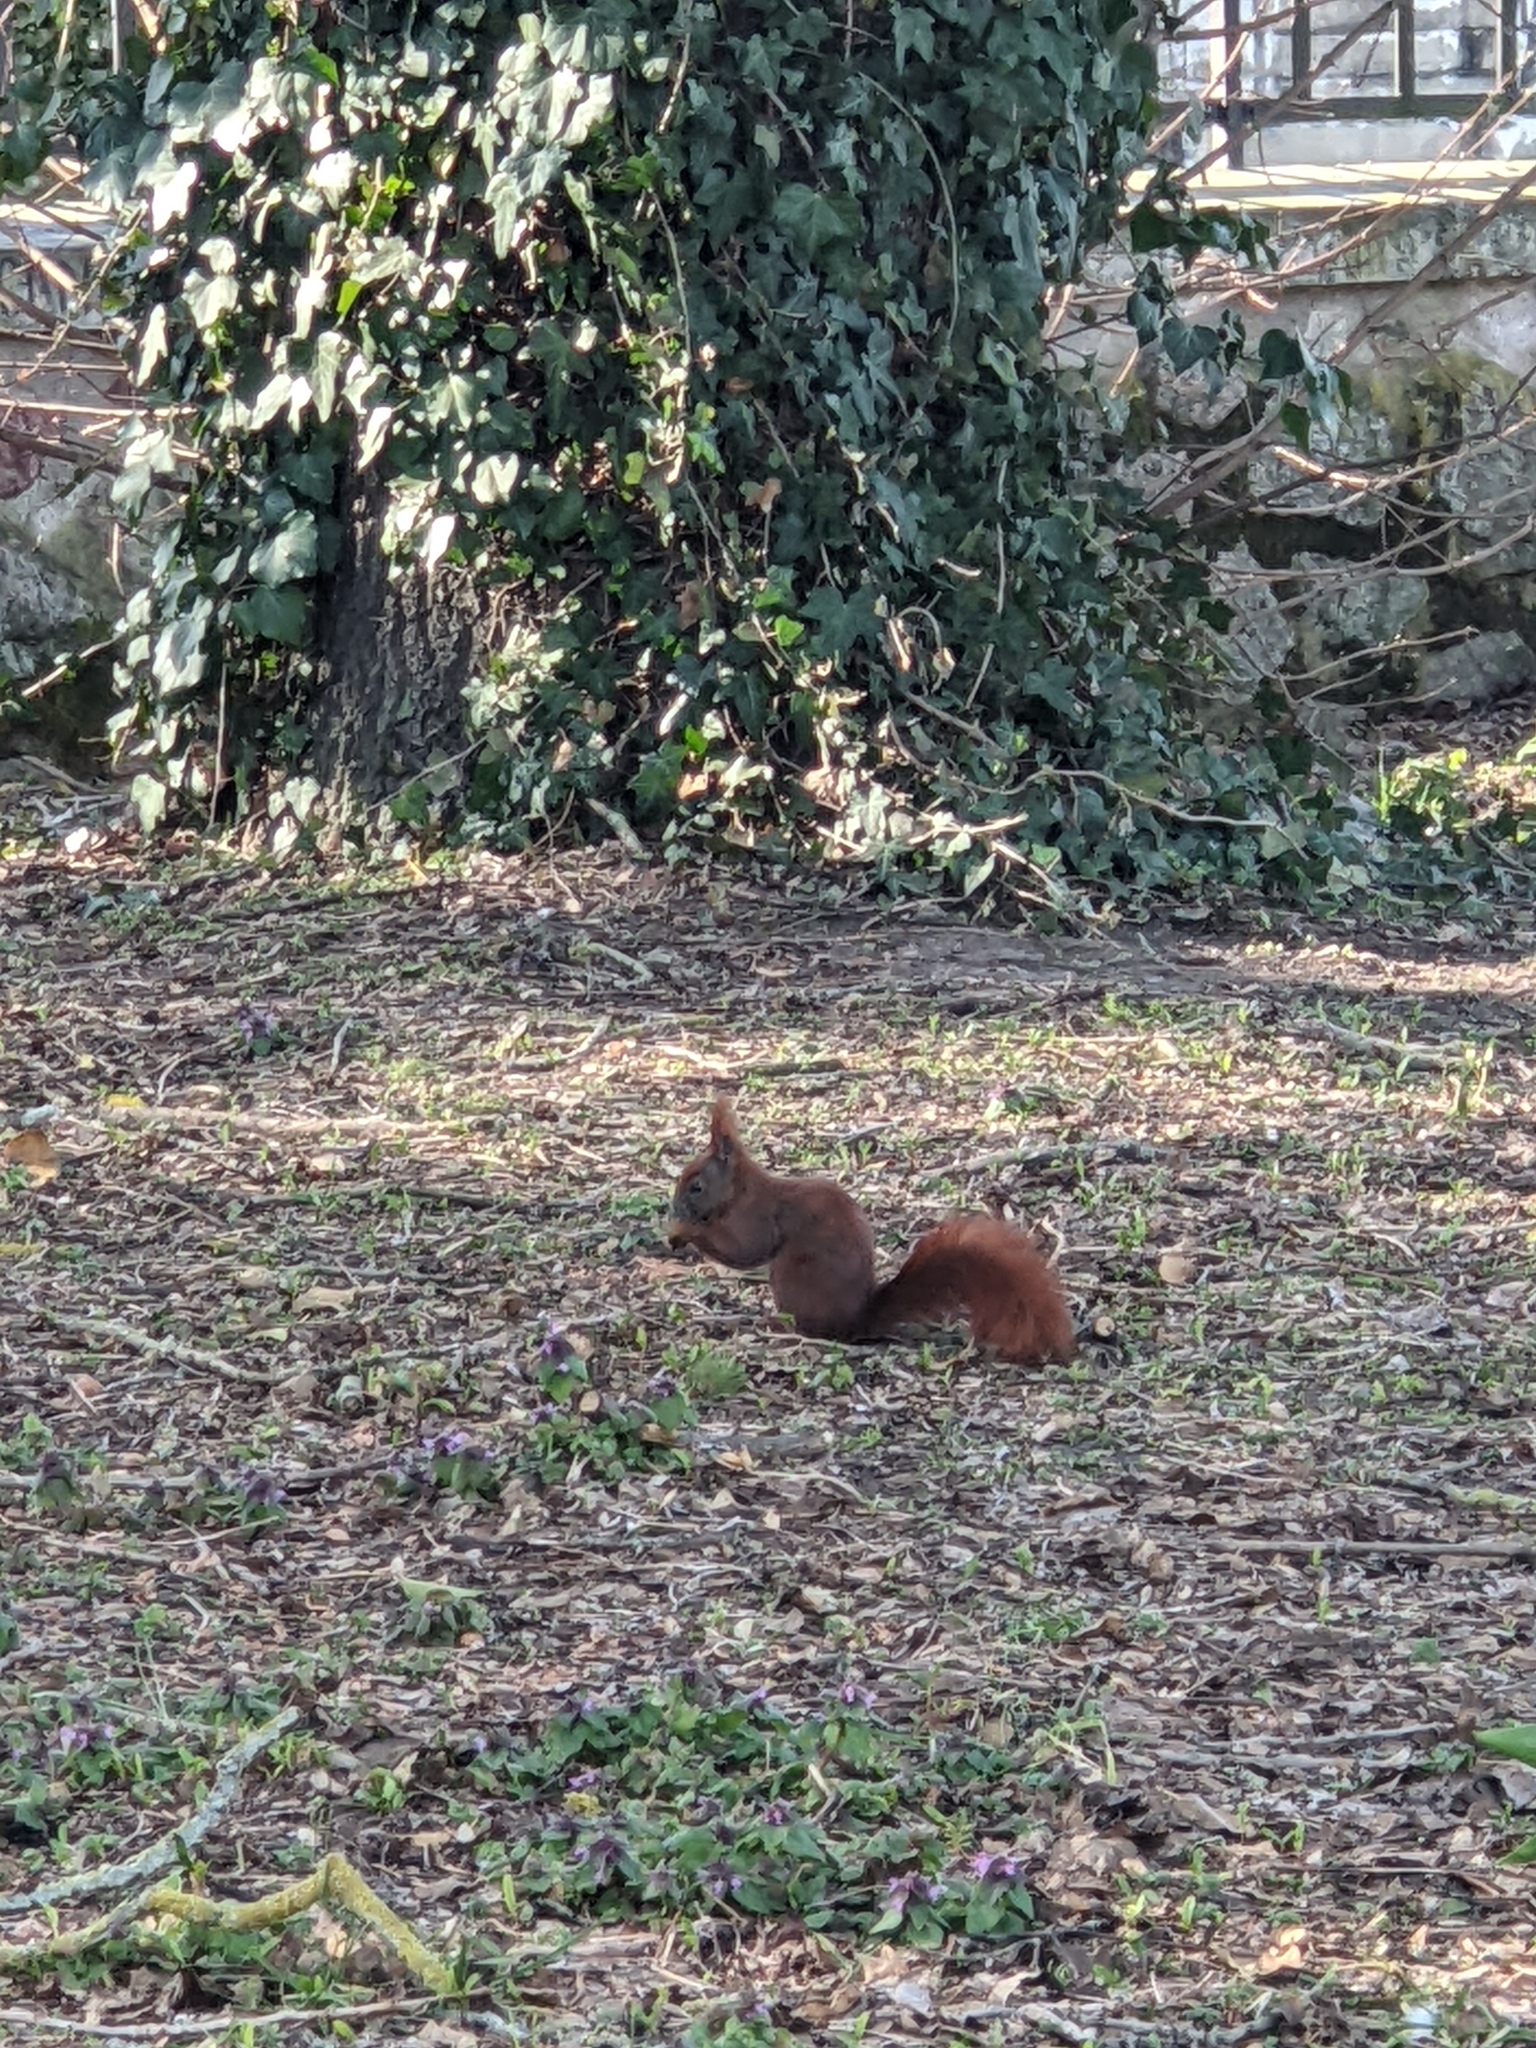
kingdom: Animalia
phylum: Chordata
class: Mammalia
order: Rodentia
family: Sciuridae
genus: Sciurus
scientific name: Sciurus vulgaris
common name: Eurasian red squirrel
